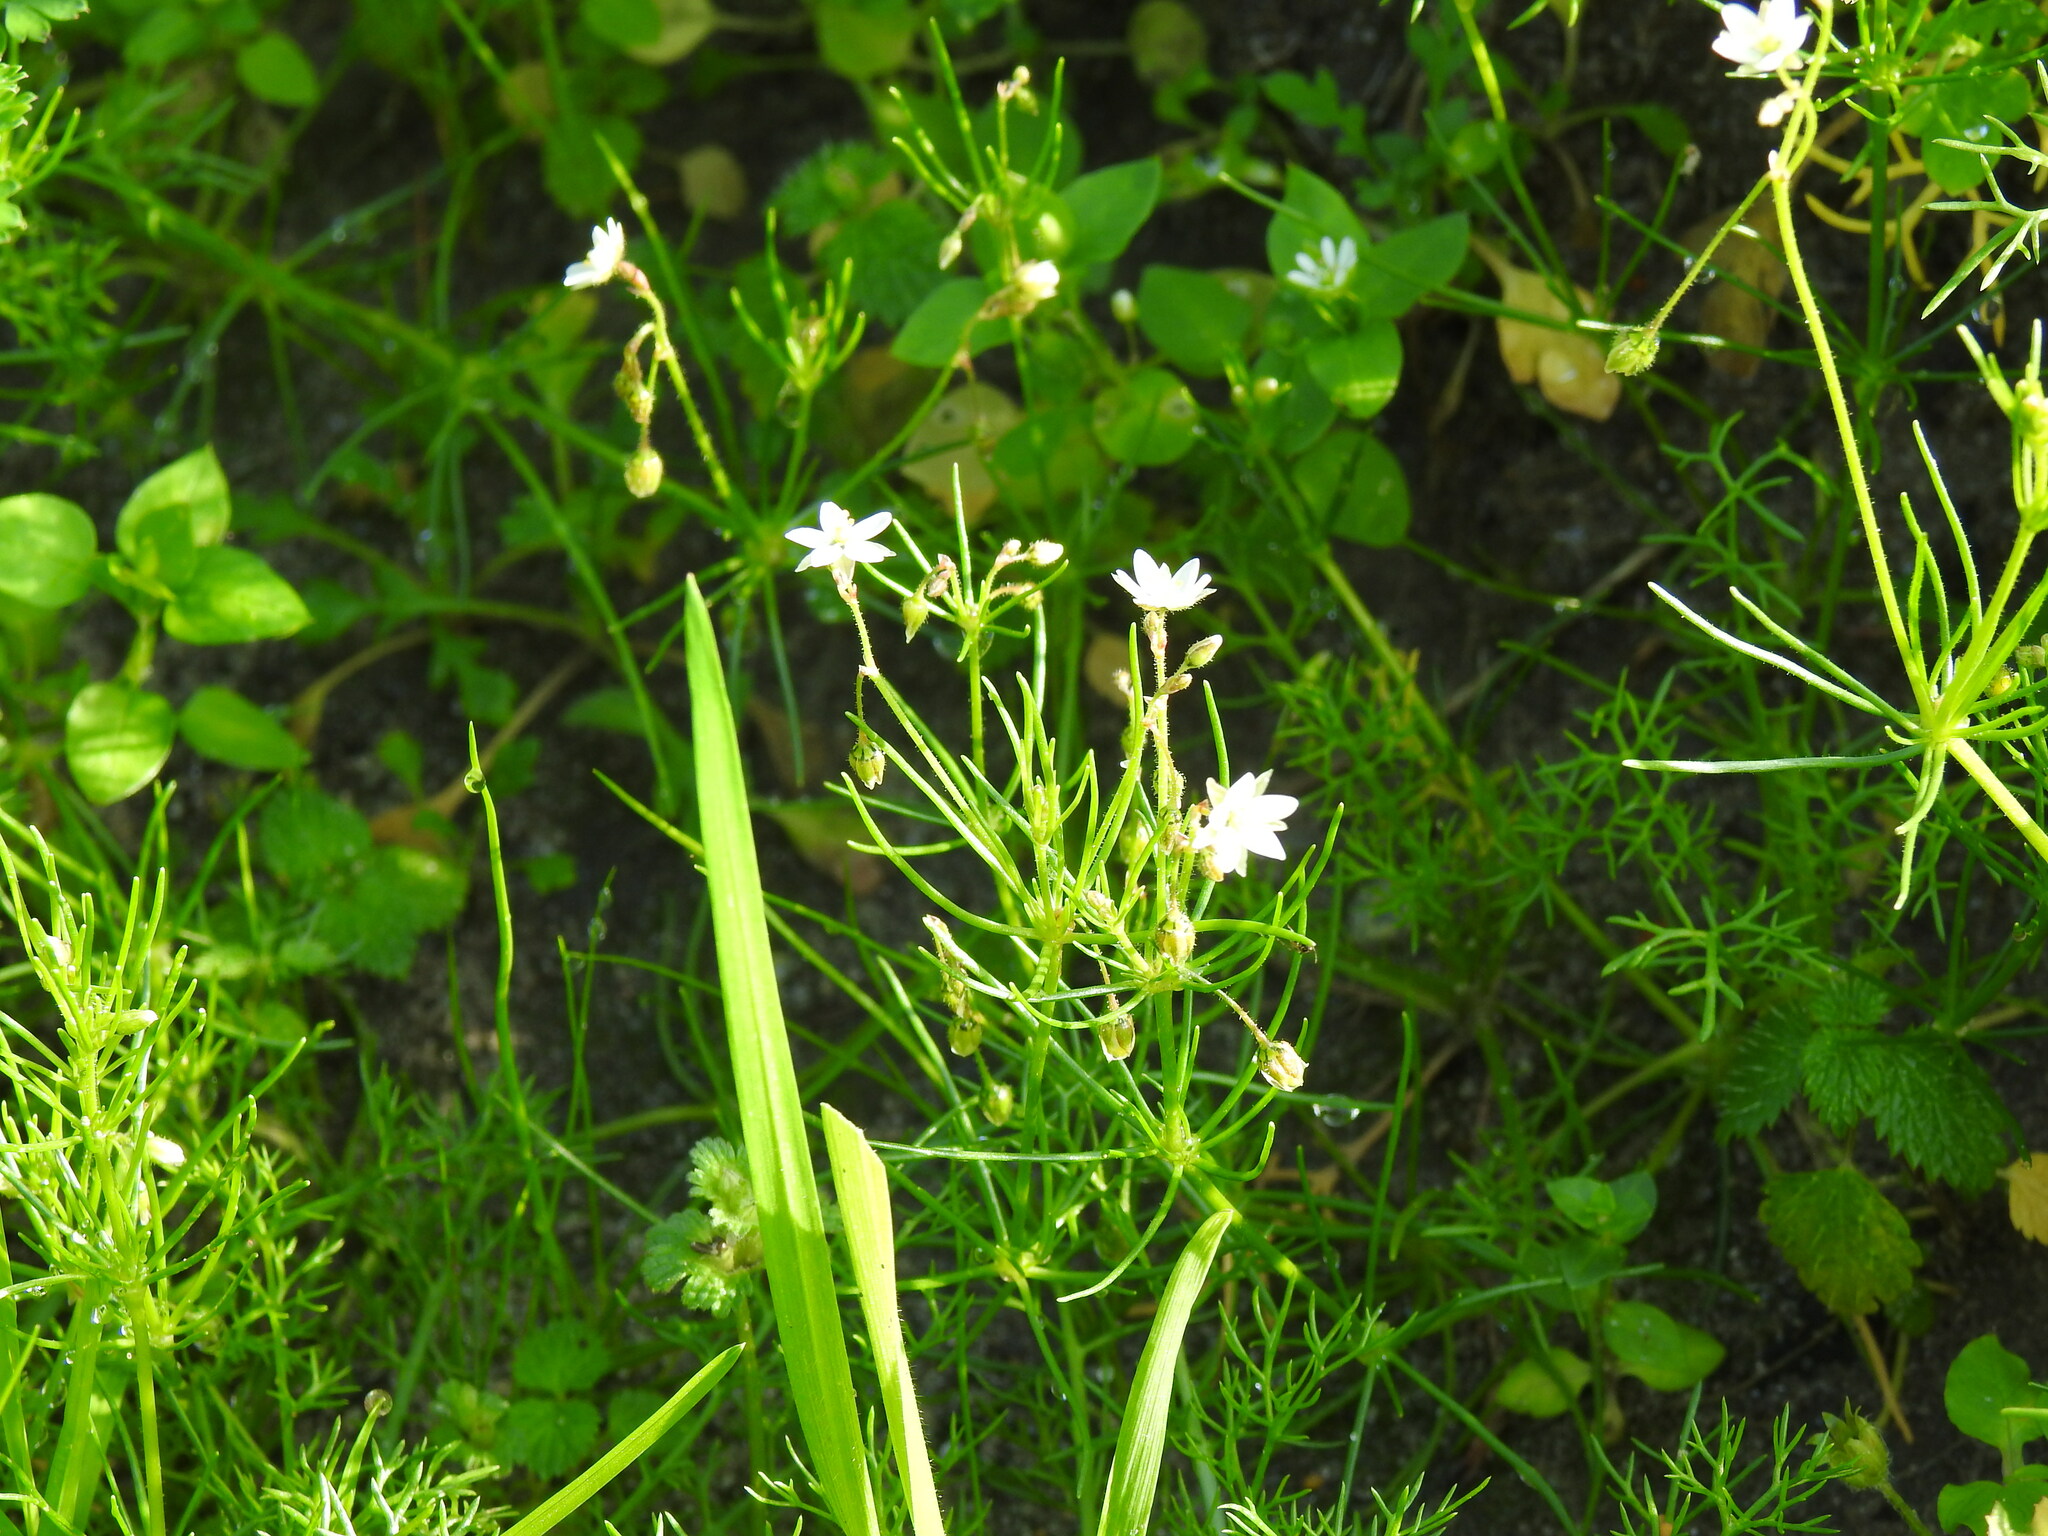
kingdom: Plantae
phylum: Tracheophyta
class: Magnoliopsida
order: Caryophyllales
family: Caryophyllaceae
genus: Spergula
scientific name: Spergula arvensis
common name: Corn spurrey
